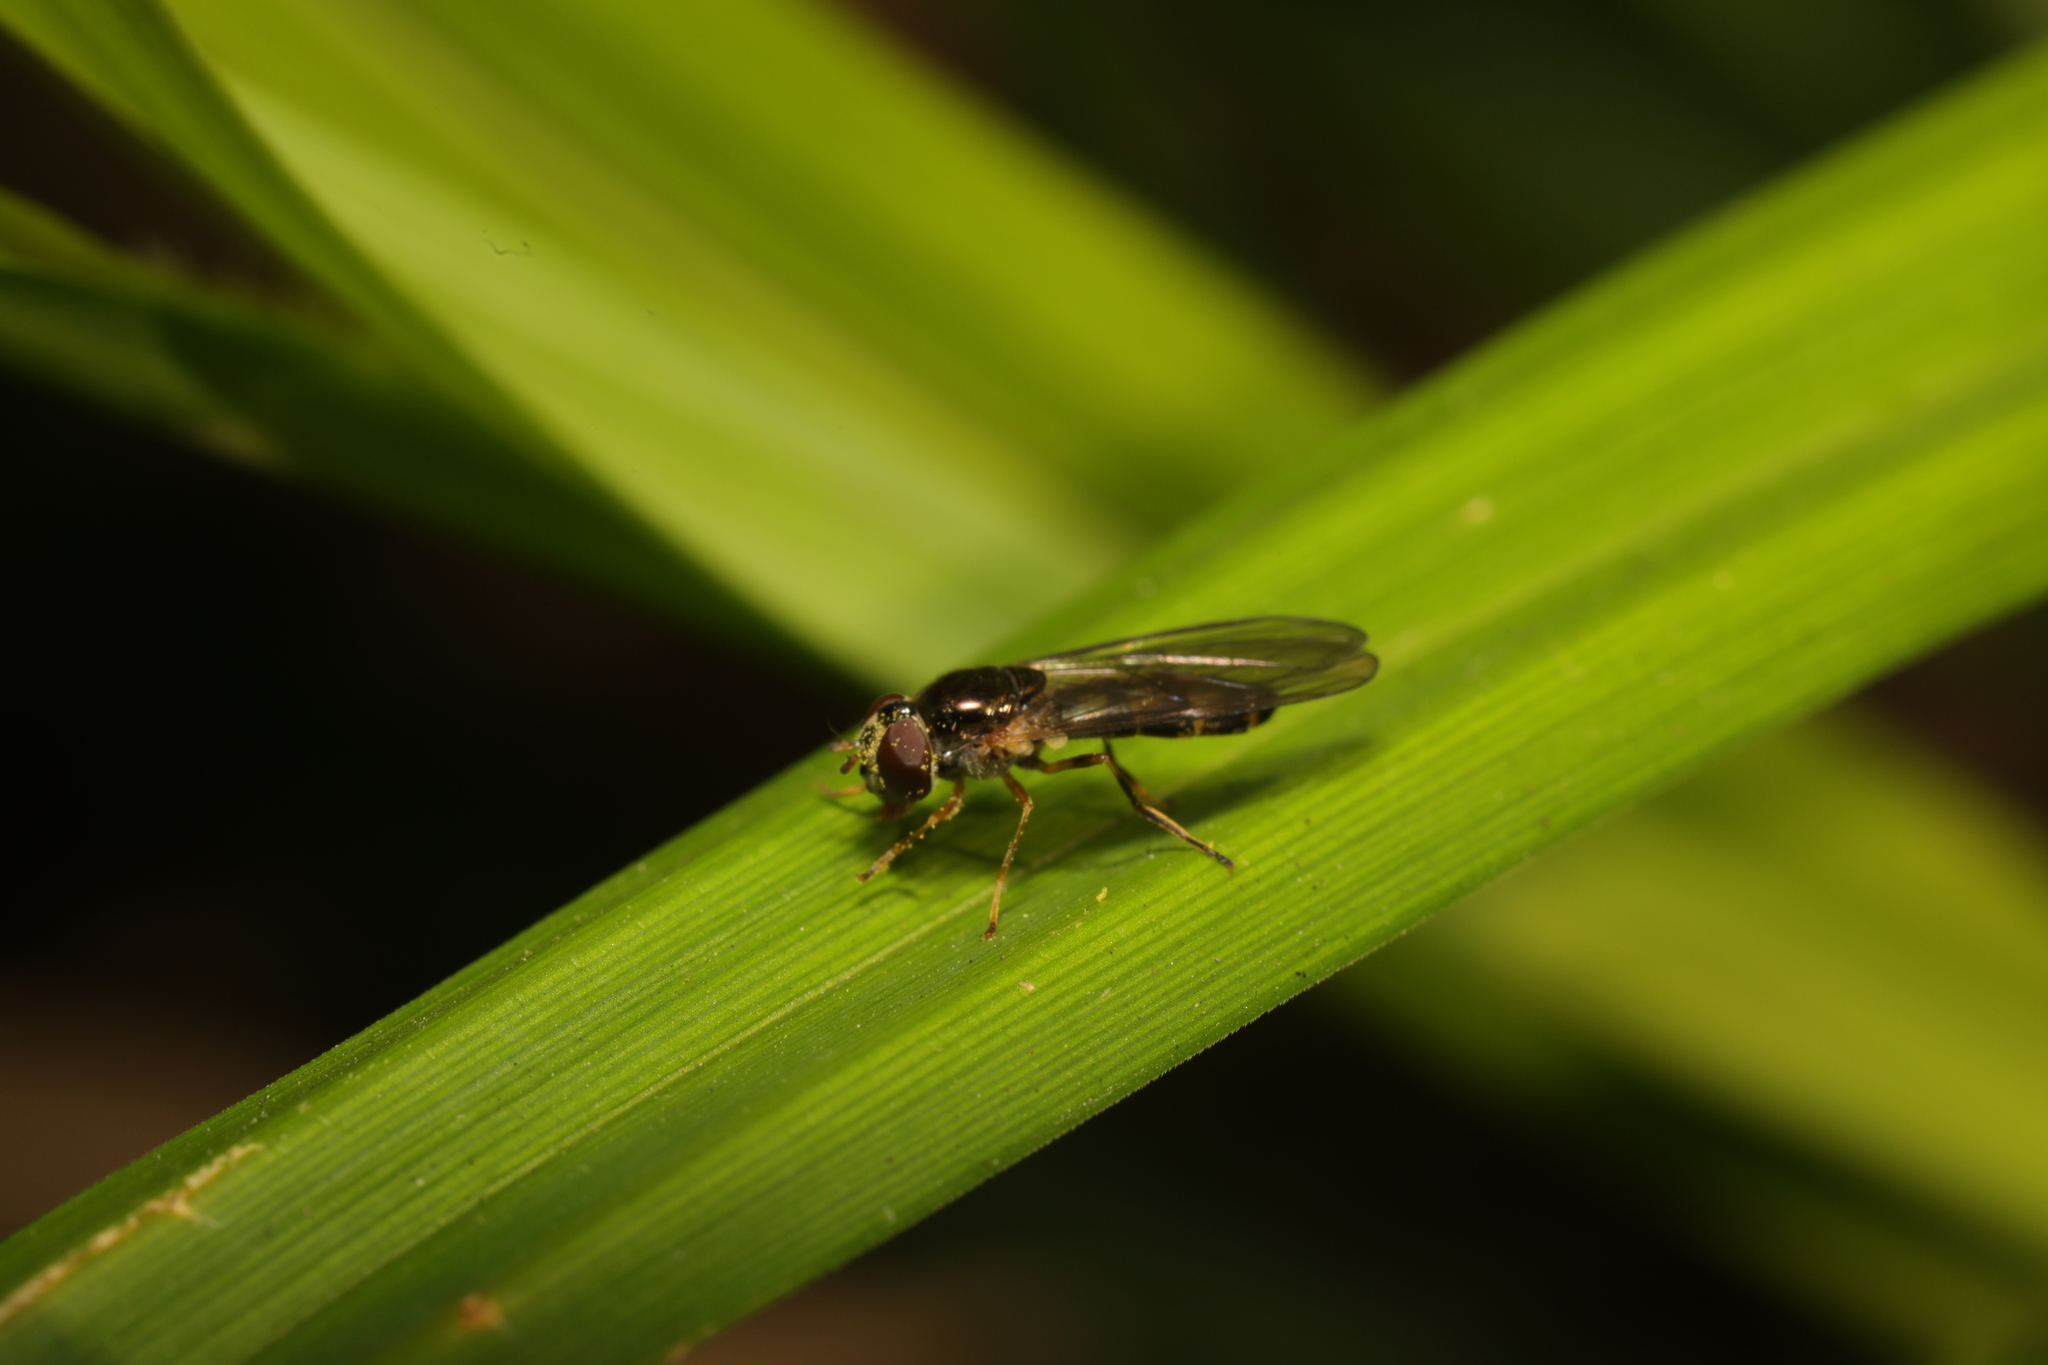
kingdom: Animalia
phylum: Arthropoda
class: Insecta
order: Diptera
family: Syrphidae
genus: Melanostoma
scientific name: Melanostoma scalare
